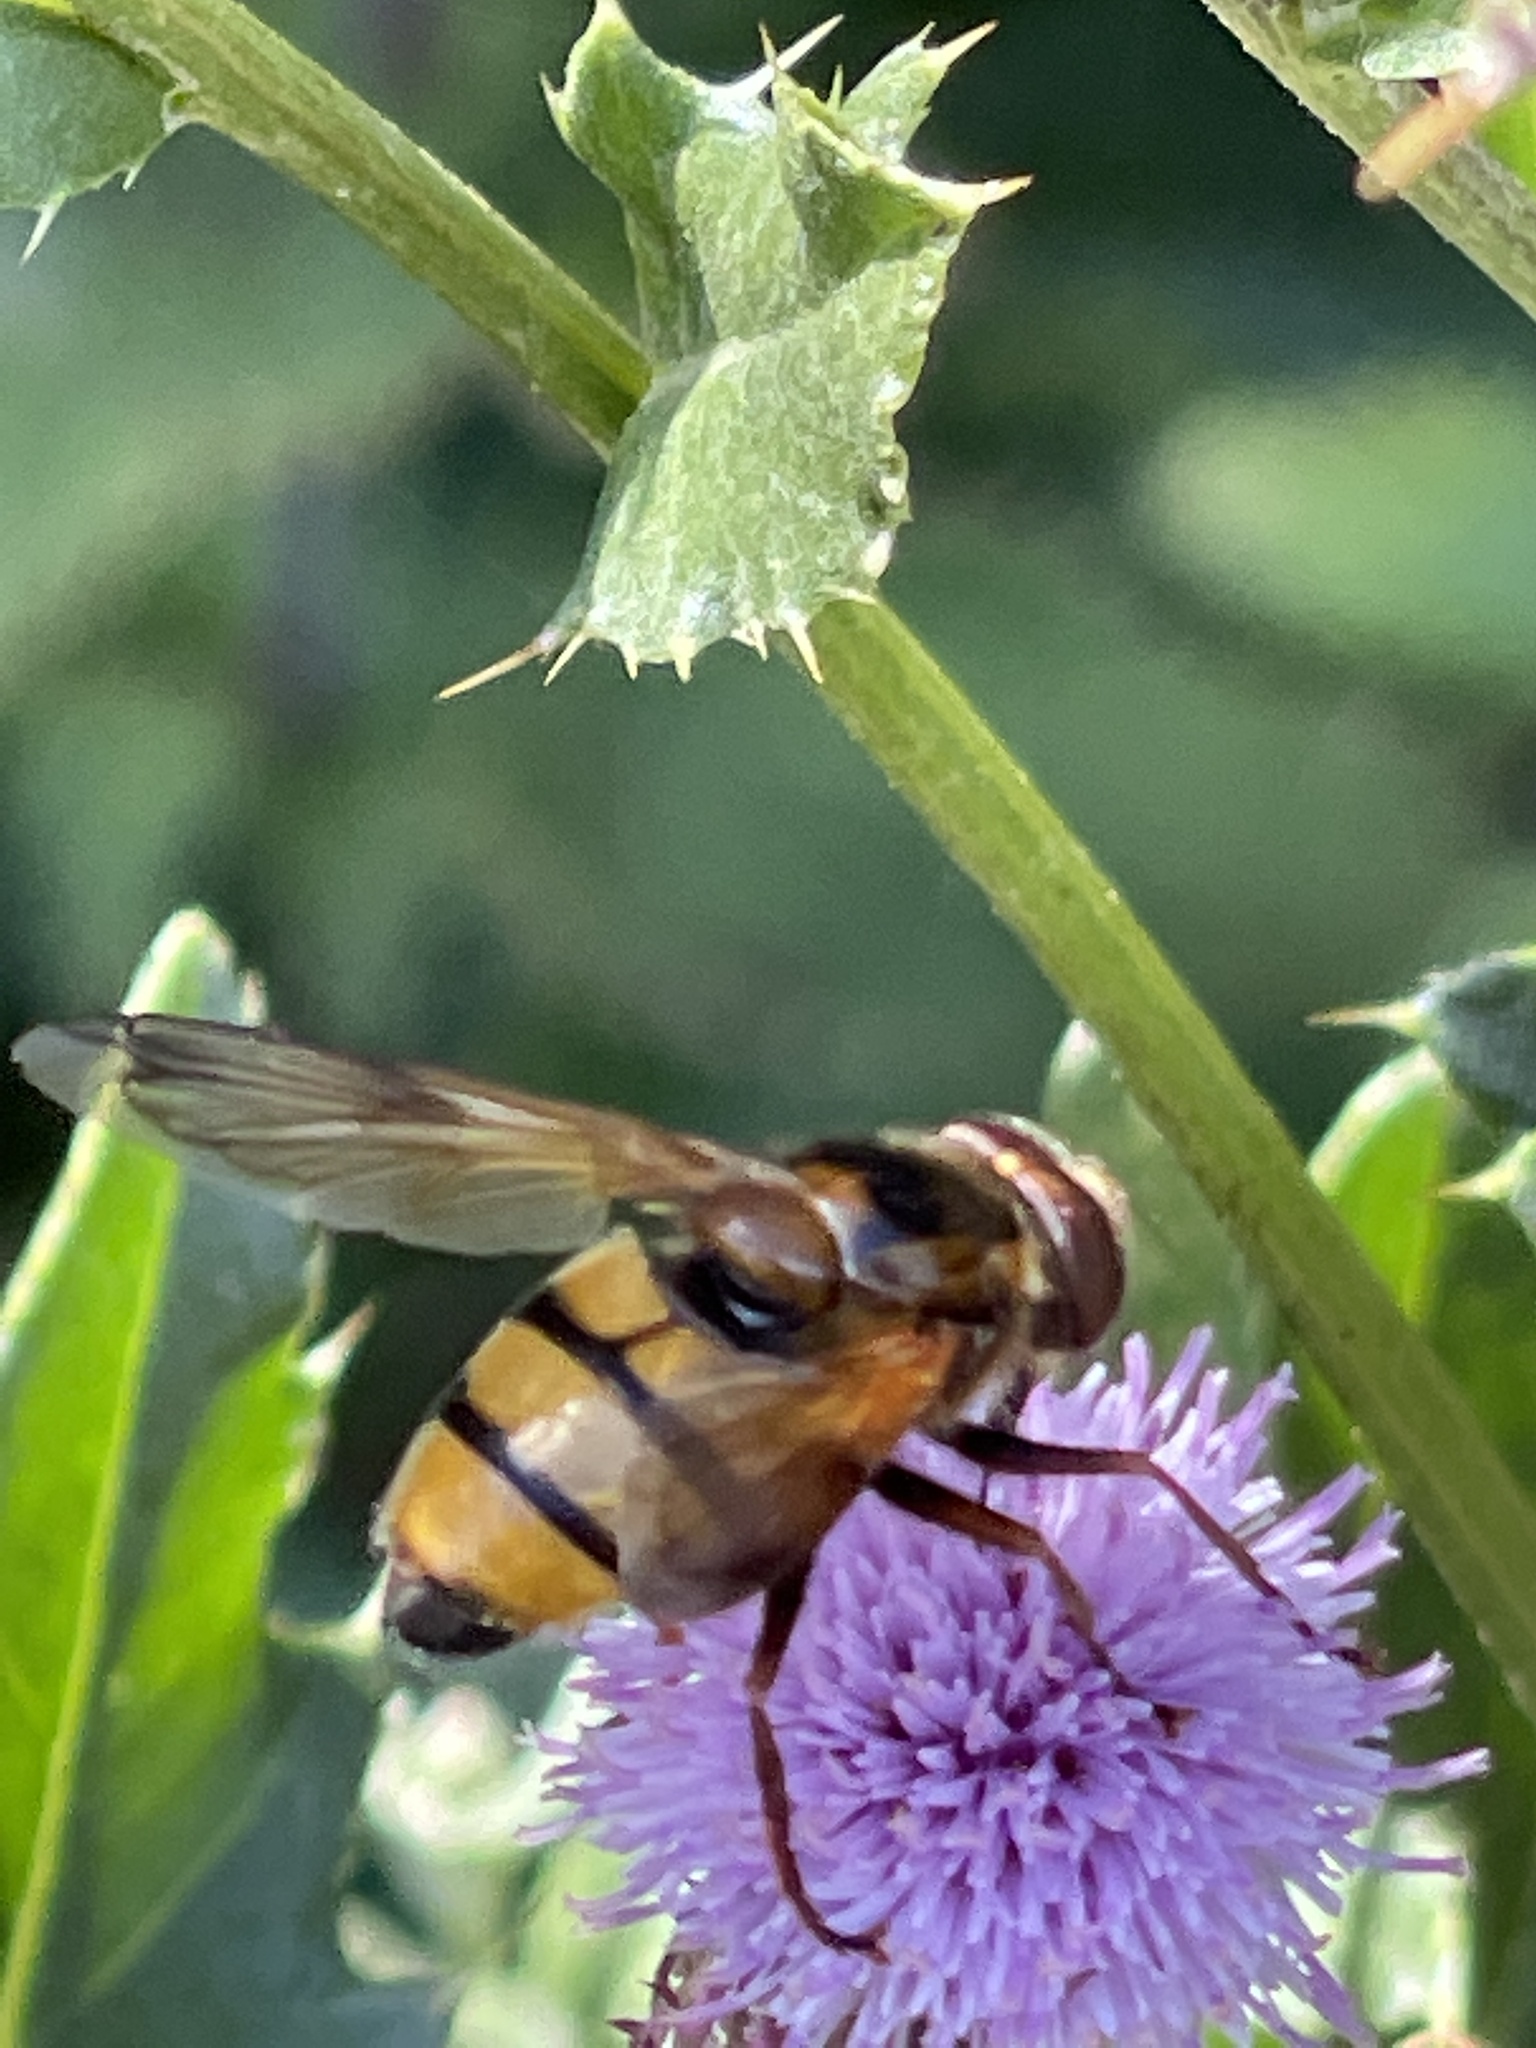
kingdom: Animalia
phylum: Arthropoda
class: Insecta
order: Diptera
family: Syrphidae
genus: Volucella
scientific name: Volucella inanis
